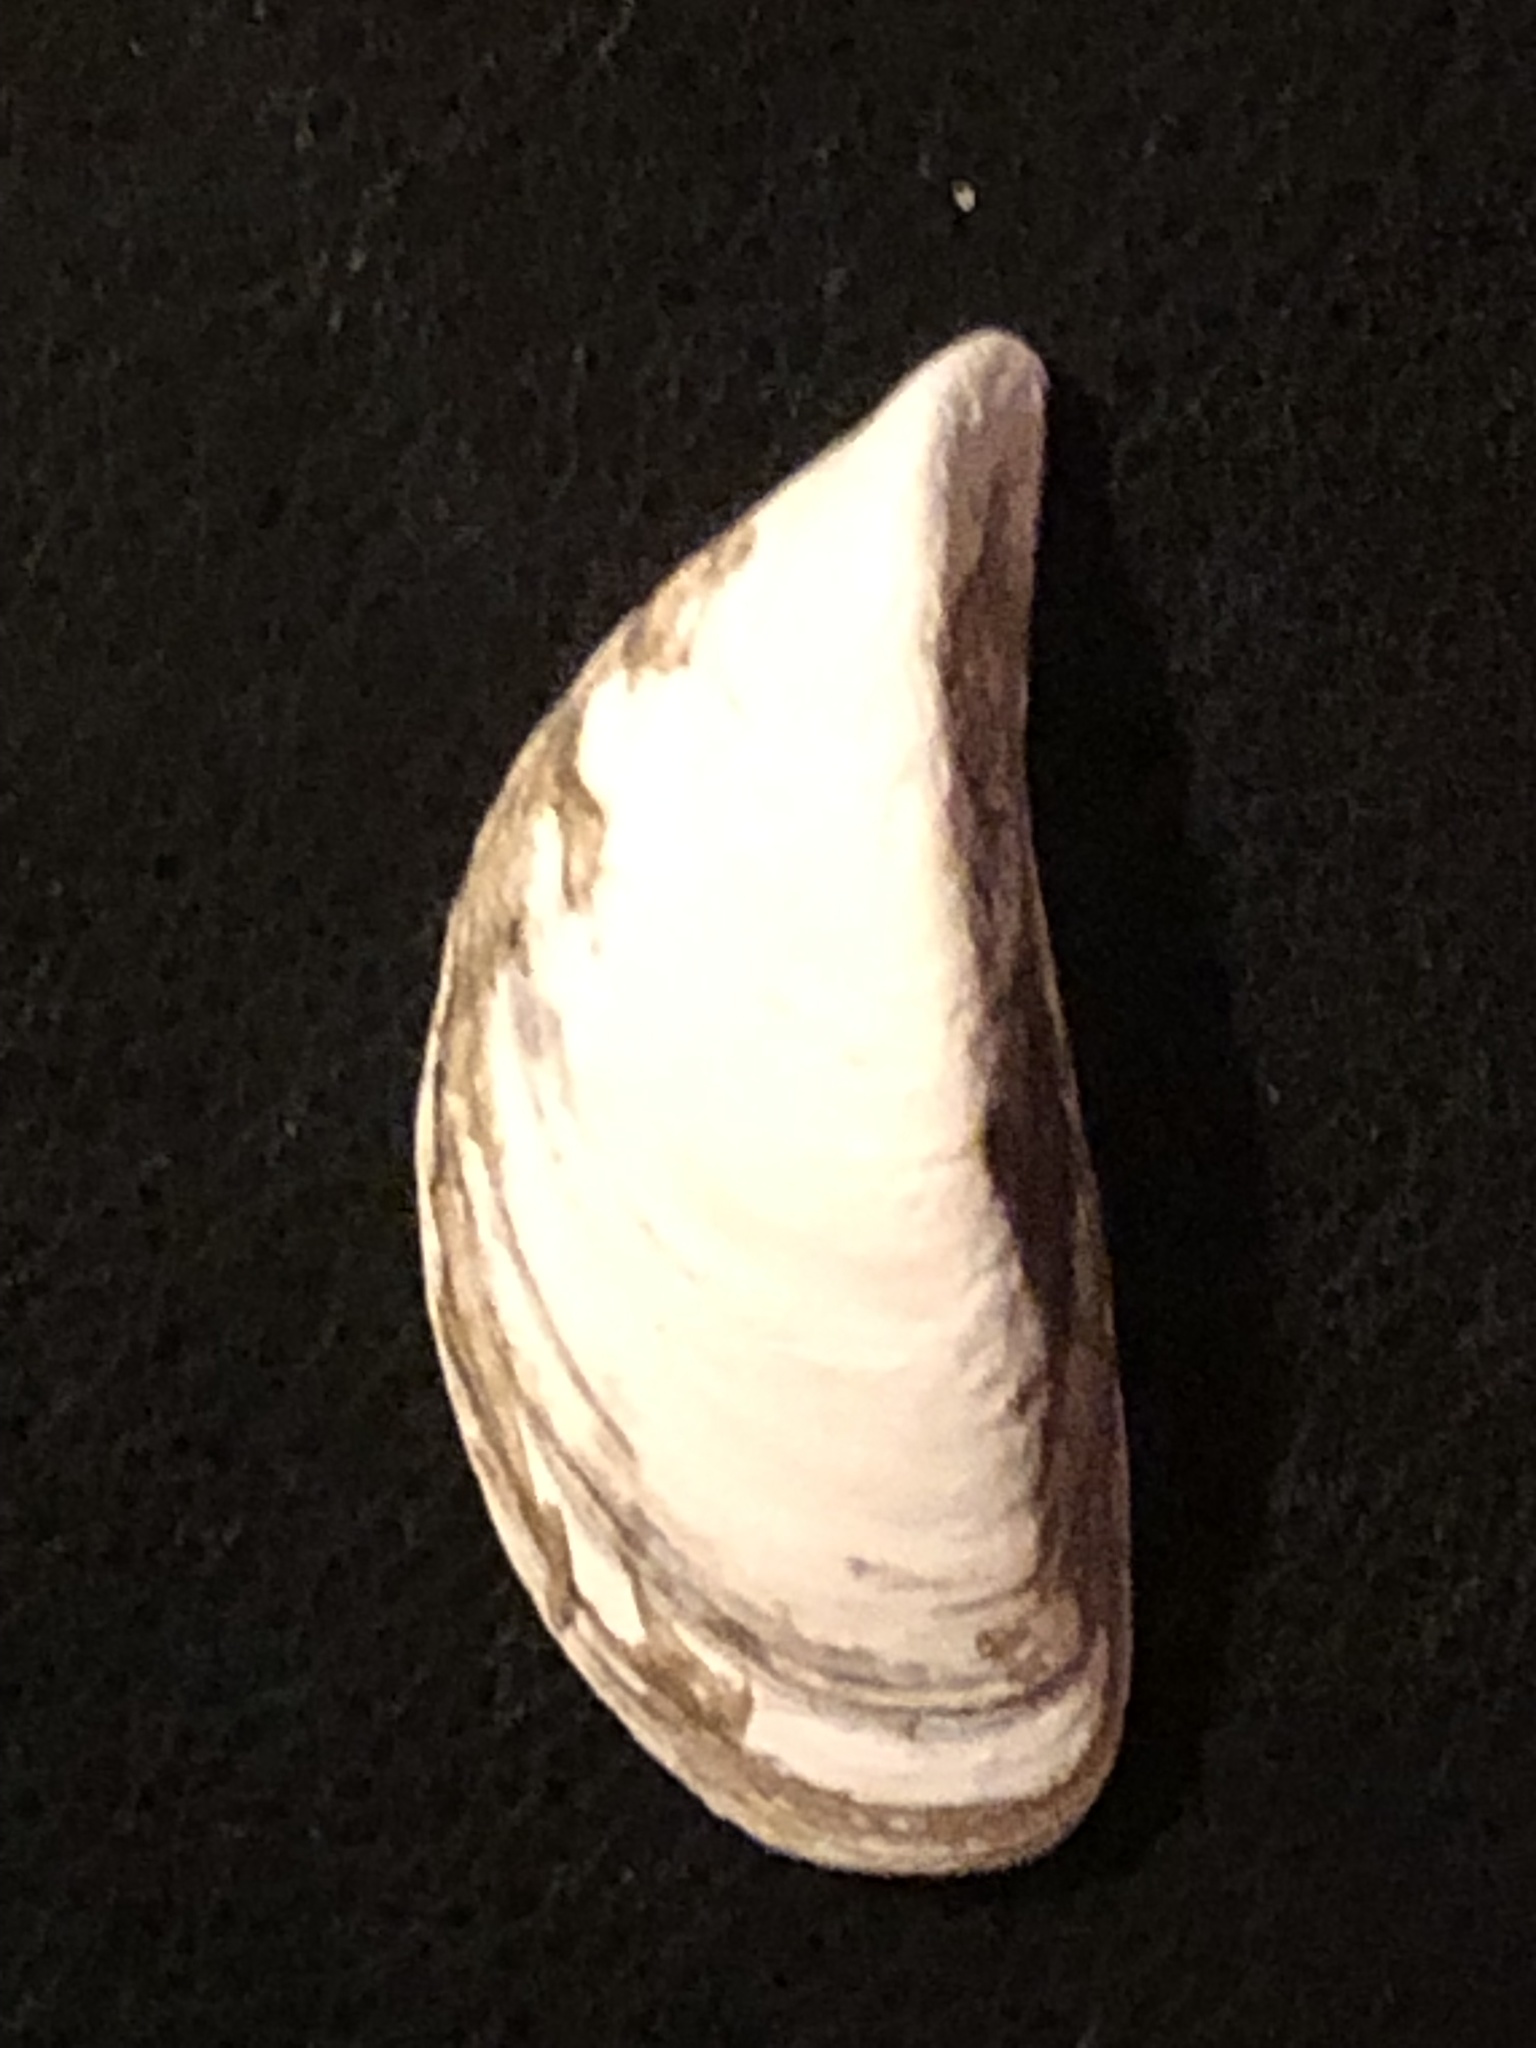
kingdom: Animalia
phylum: Mollusca
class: Bivalvia
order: Myida
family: Dreissenidae
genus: Dreissena
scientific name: Dreissena polymorpha
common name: Zebra mussel
